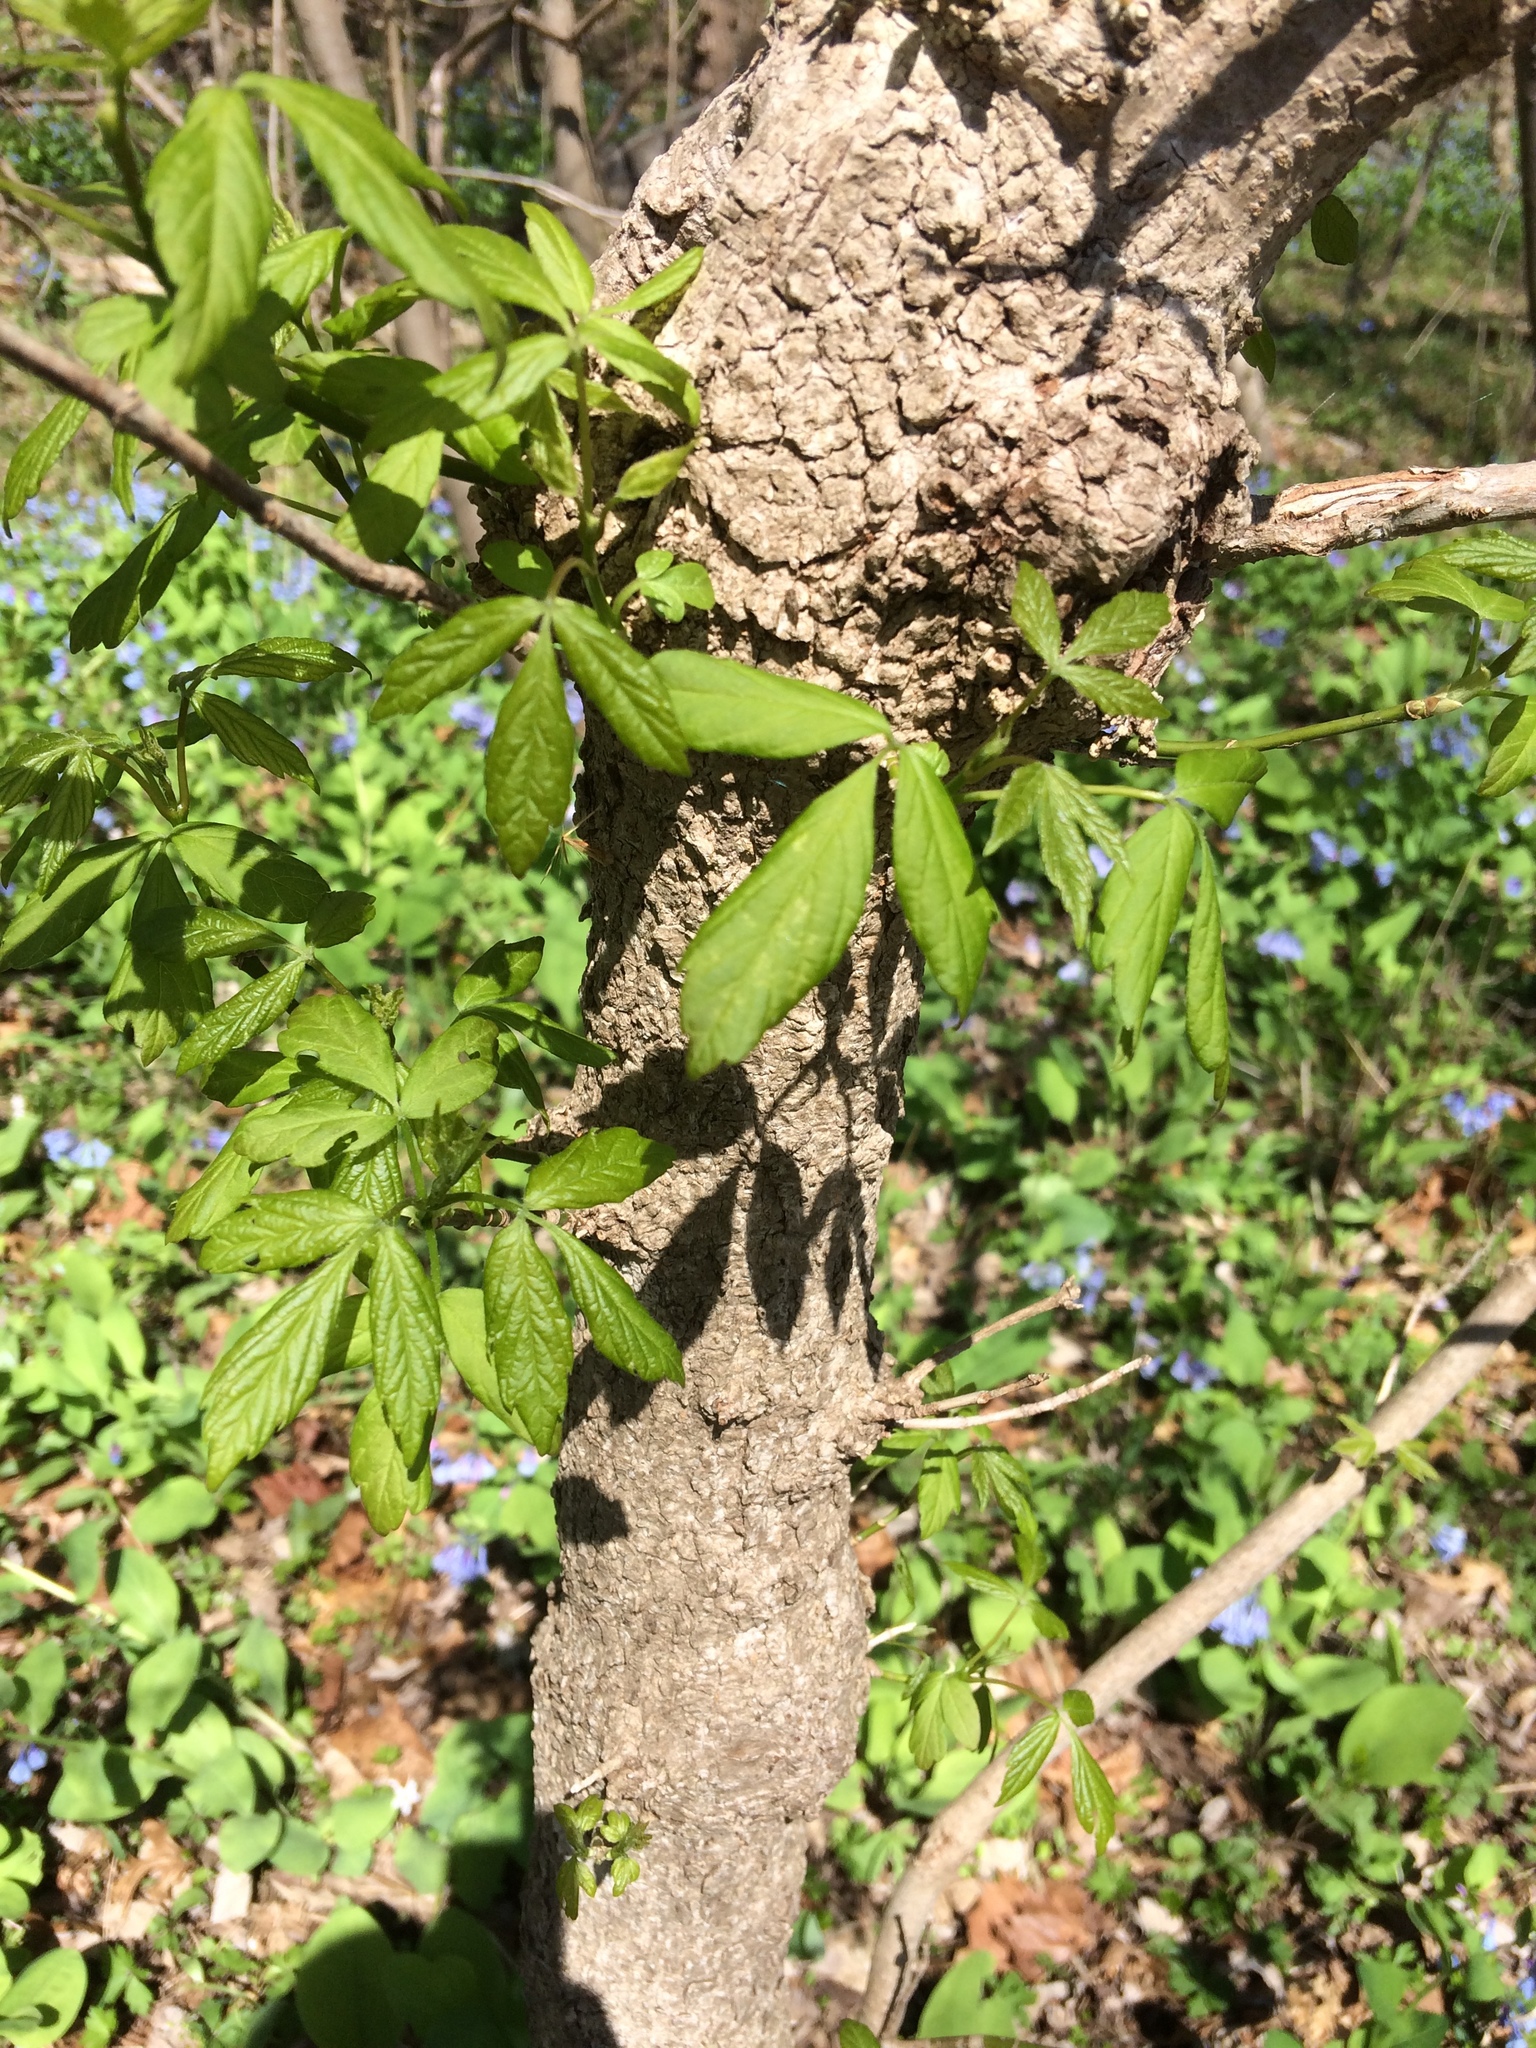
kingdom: Plantae
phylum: Tracheophyta
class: Magnoliopsida
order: Sapindales
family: Sapindaceae
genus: Acer
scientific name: Acer negundo
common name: Ashleaf maple
